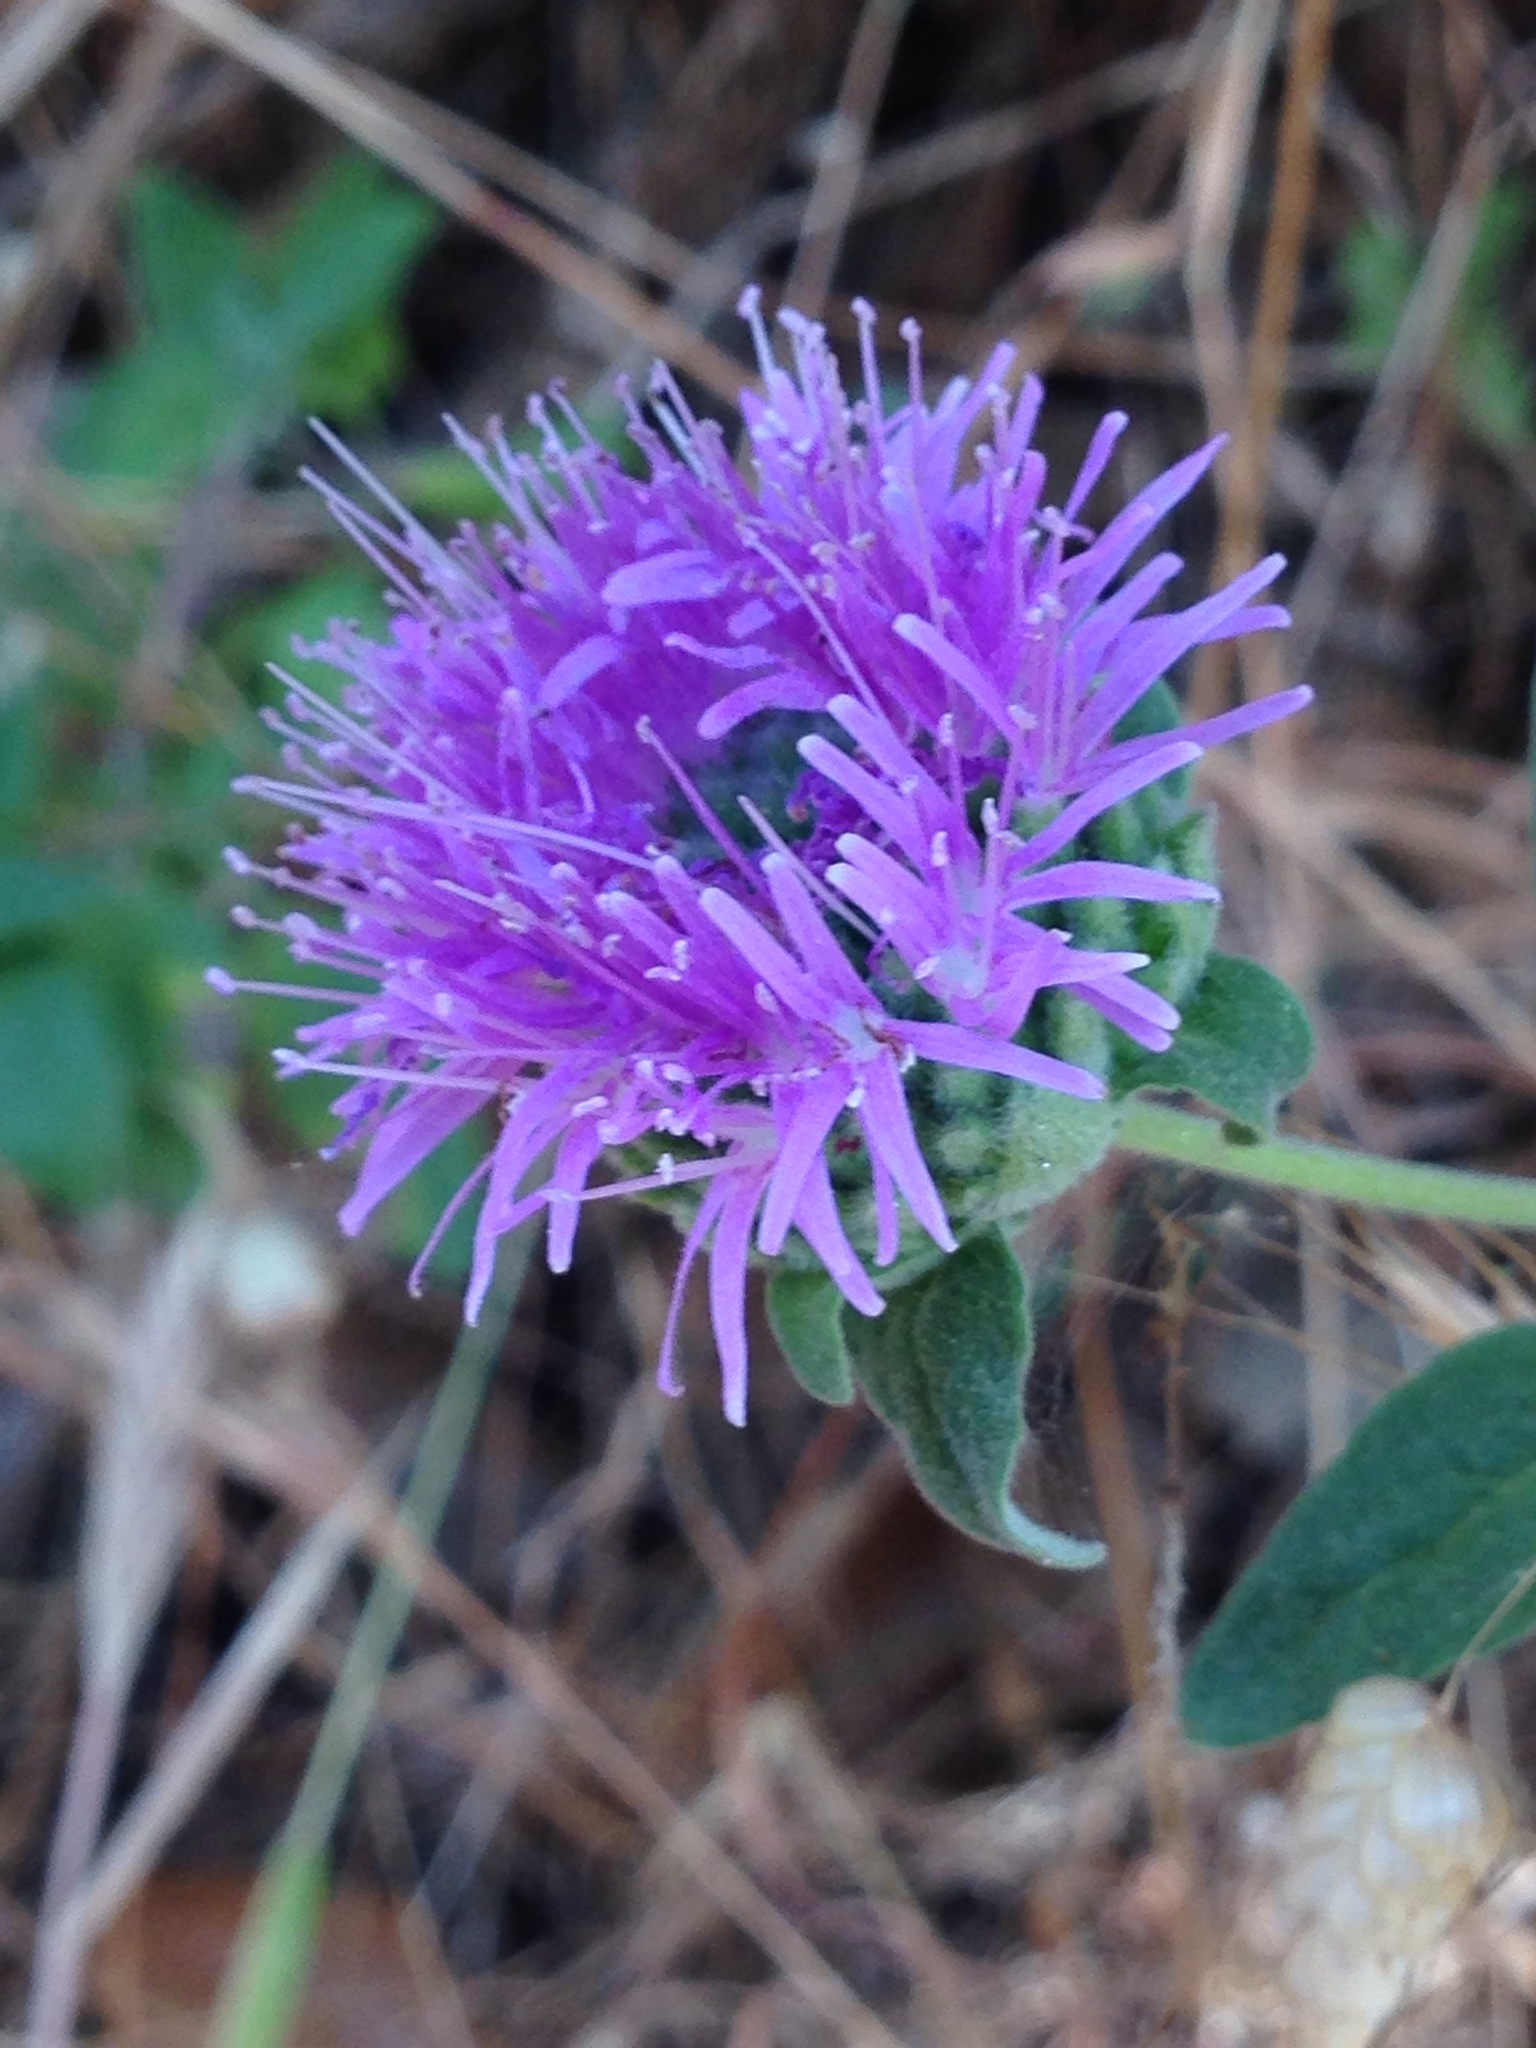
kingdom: Plantae
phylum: Tracheophyta
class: Magnoliopsida
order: Lamiales
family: Lamiaceae
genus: Monardella
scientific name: Monardella odoratissima
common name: Pacific monardella
